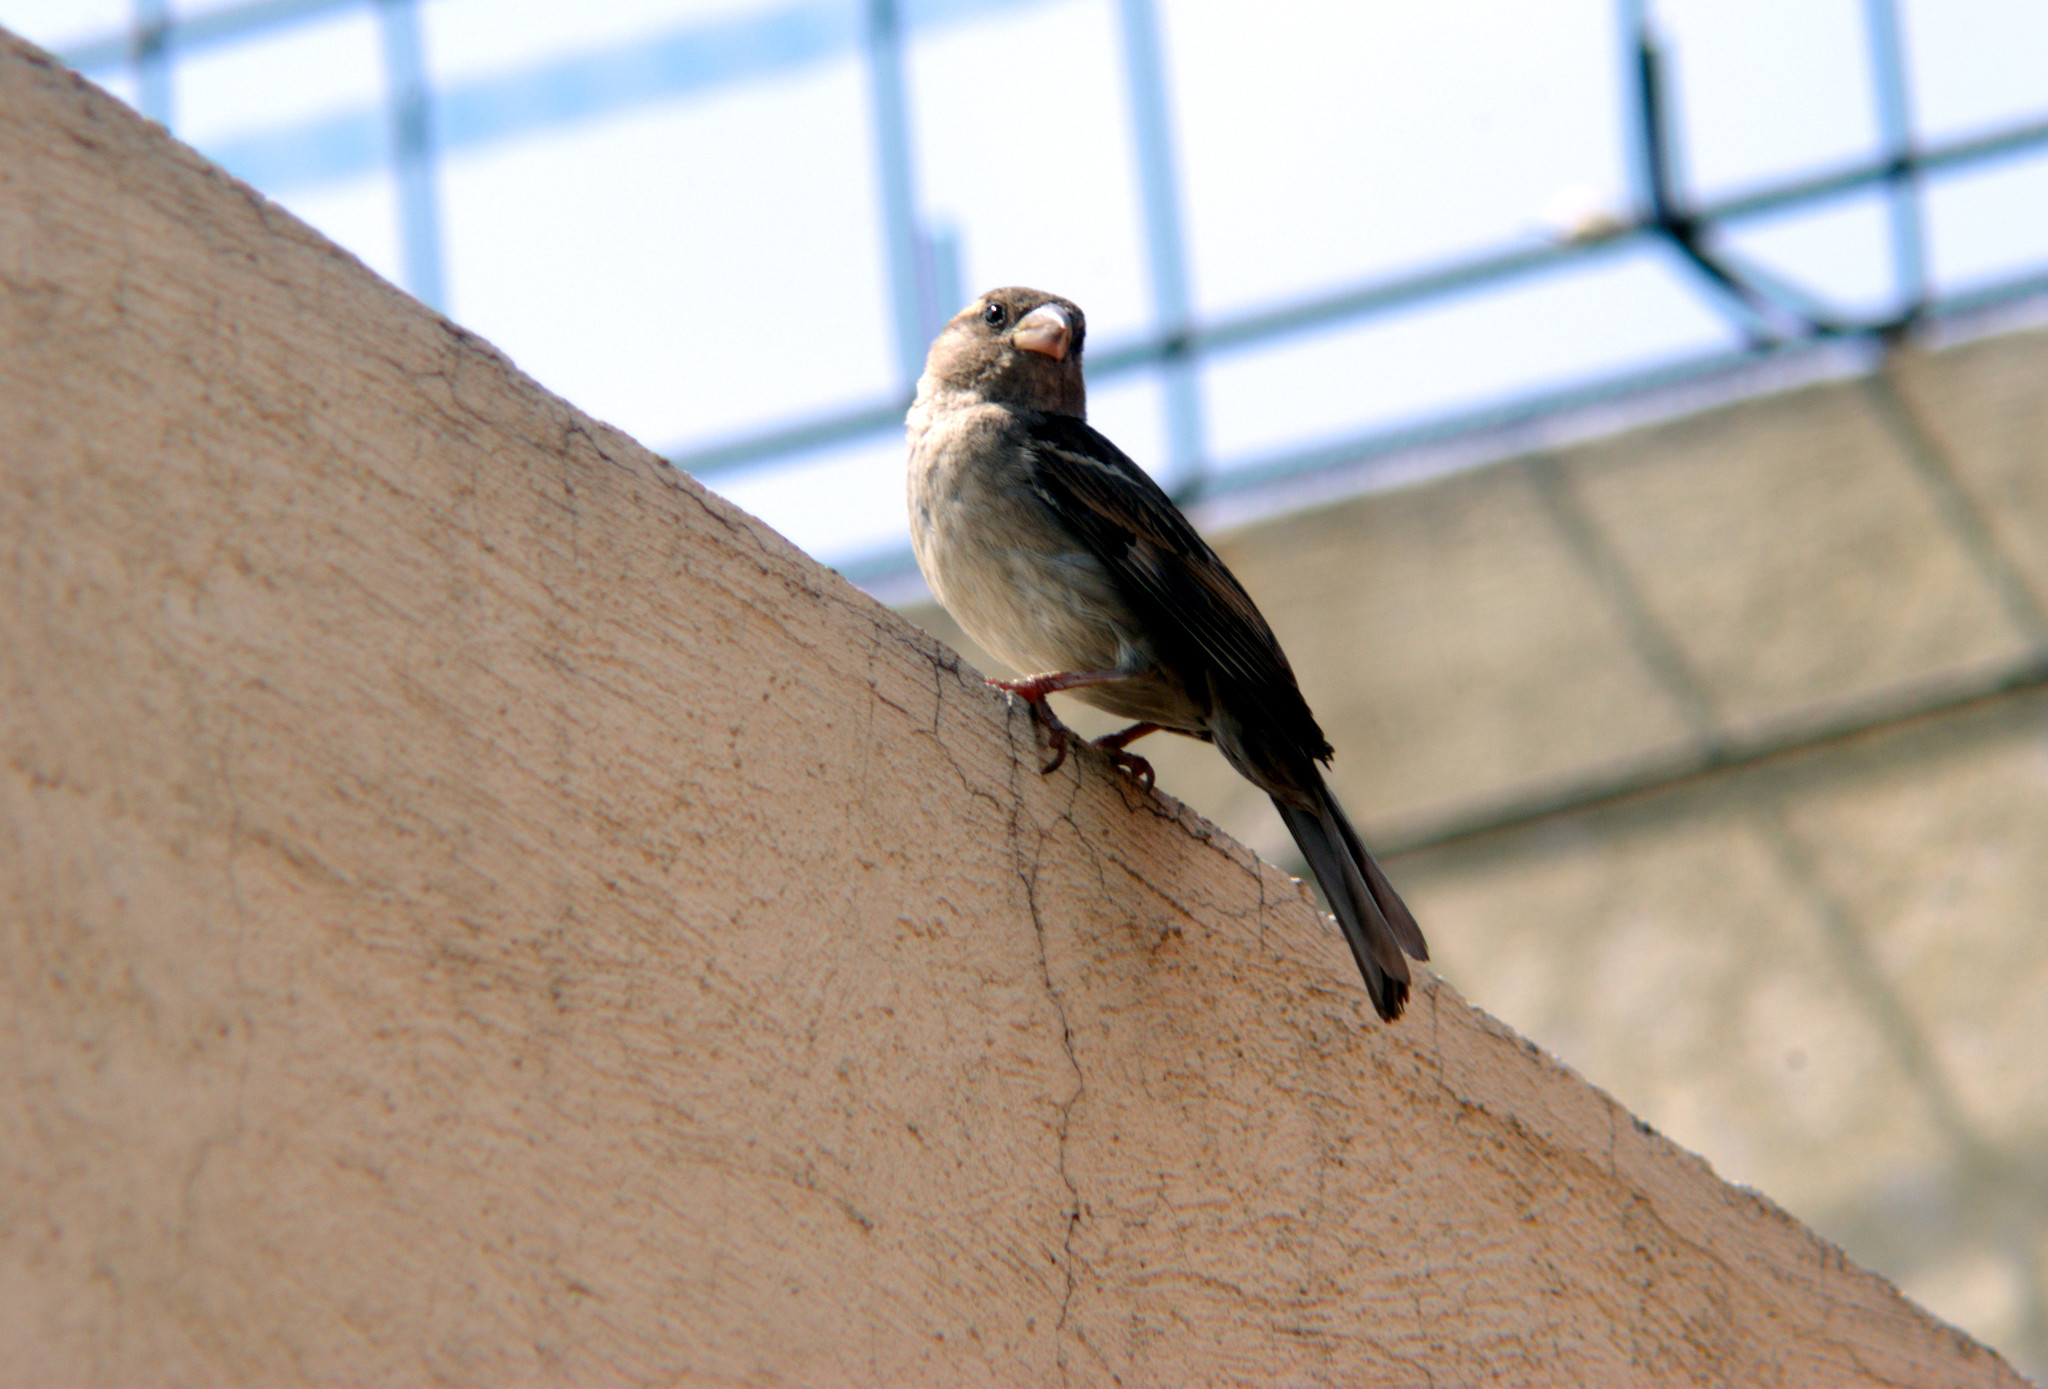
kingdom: Animalia
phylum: Chordata
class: Aves
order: Passeriformes
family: Passeridae
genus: Passer
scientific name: Passer domesticus
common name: House sparrow
